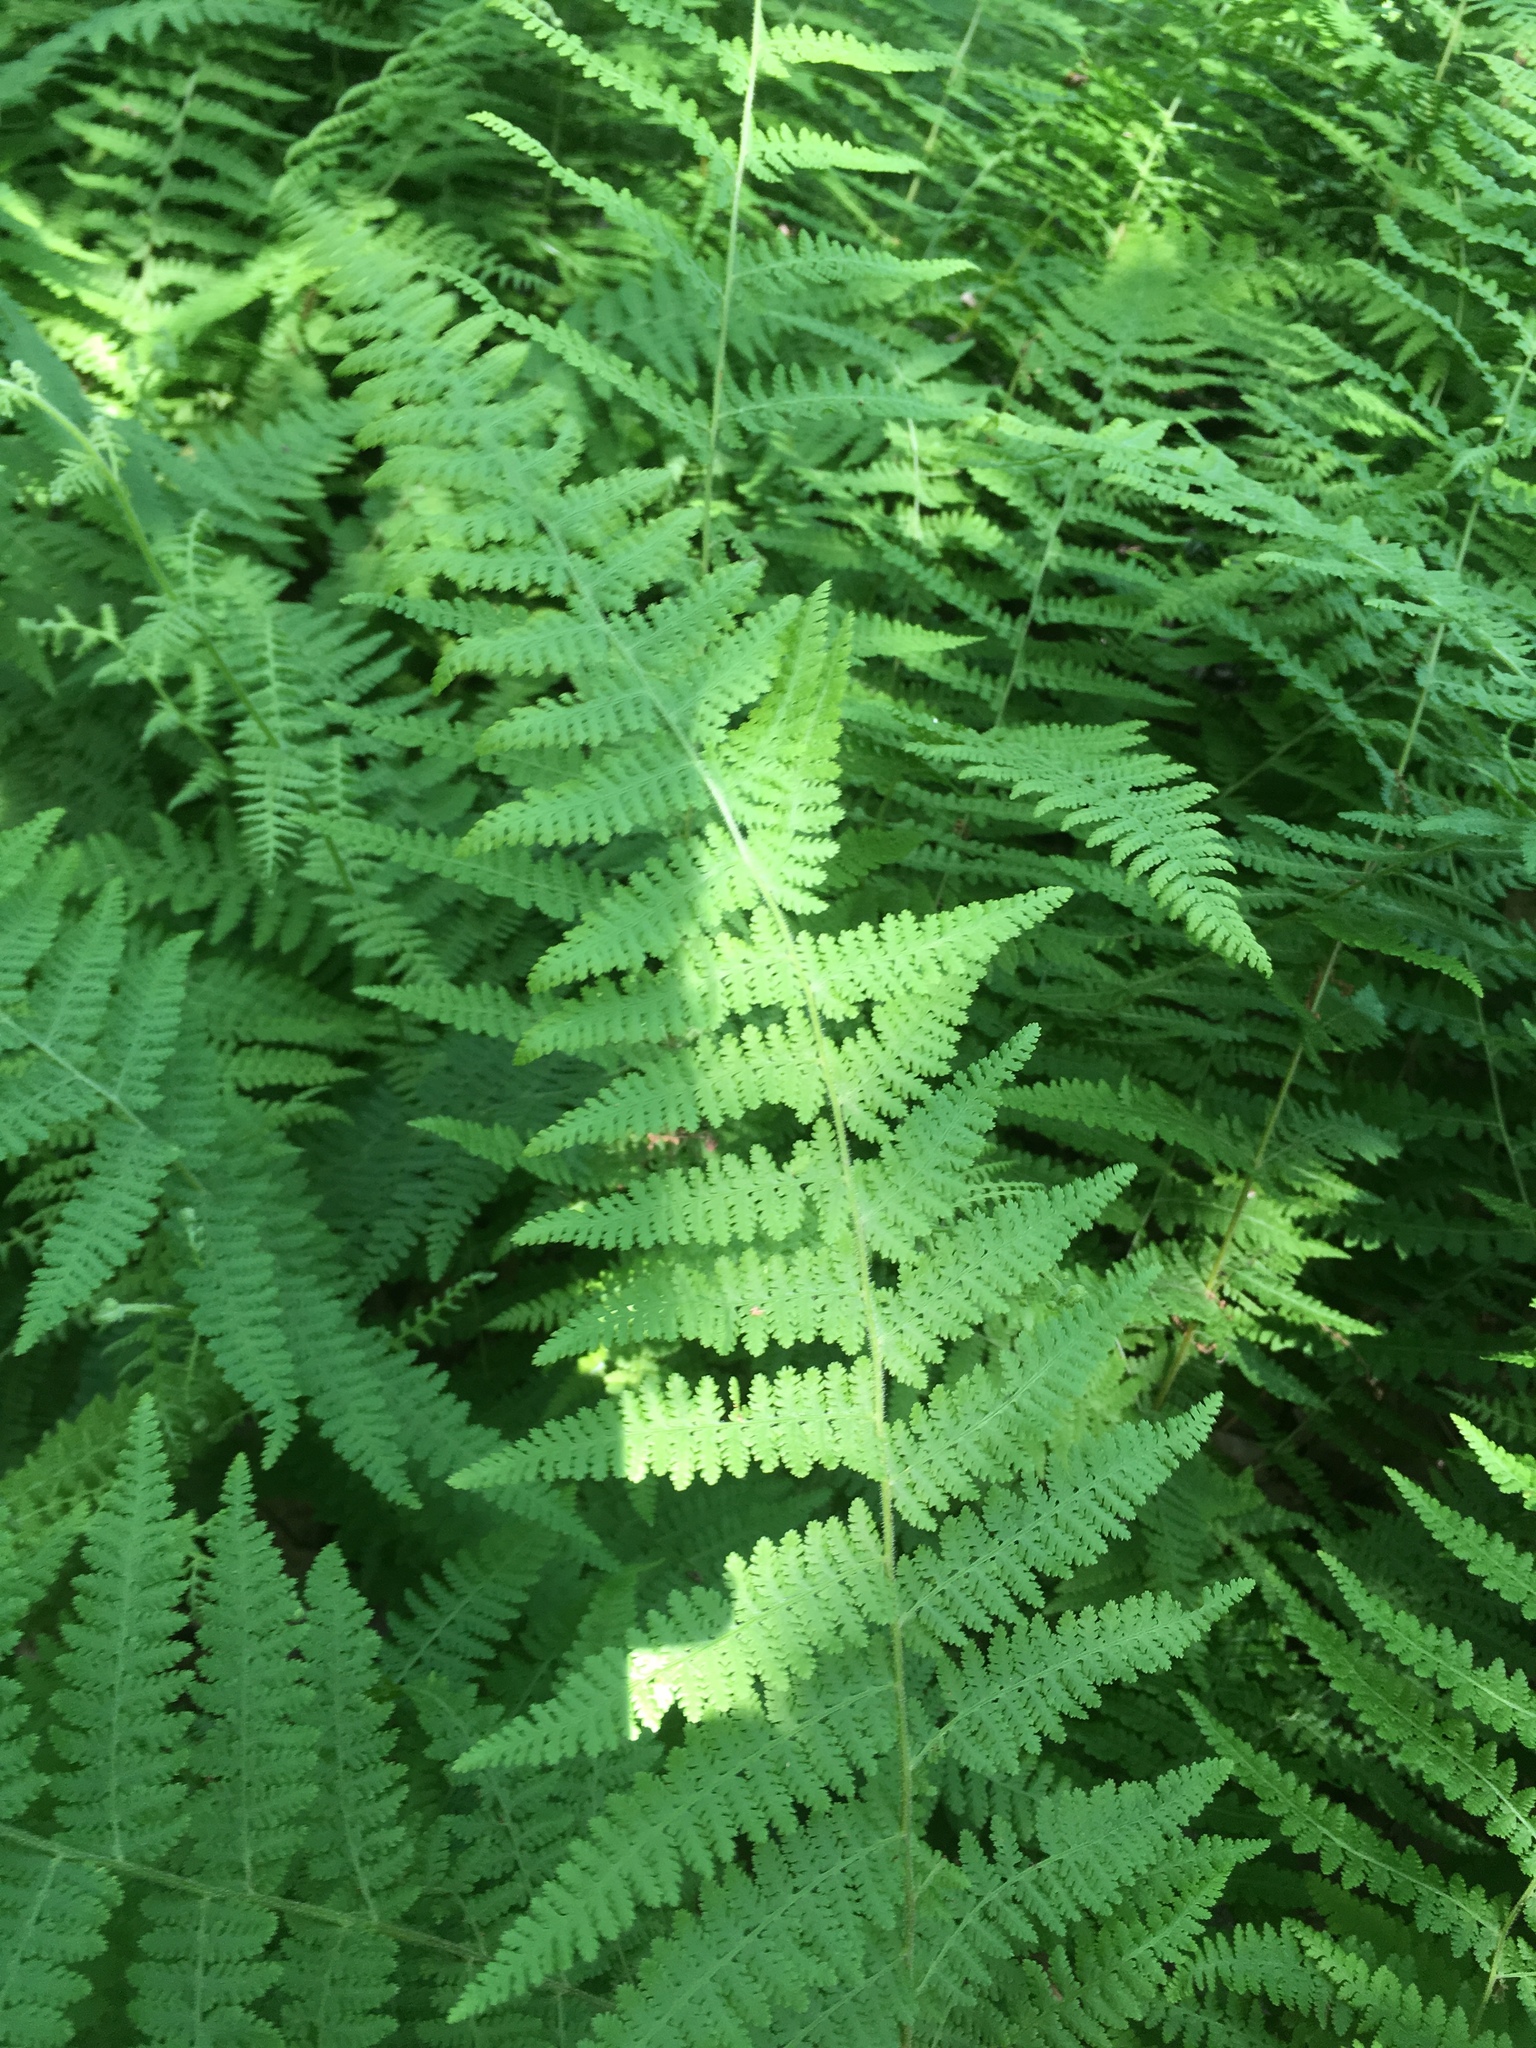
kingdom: Plantae
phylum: Tracheophyta
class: Polypodiopsida
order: Polypodiales
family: Dennstaedtiaceae
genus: Sitobolium
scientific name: Sitobolium punctilobum
